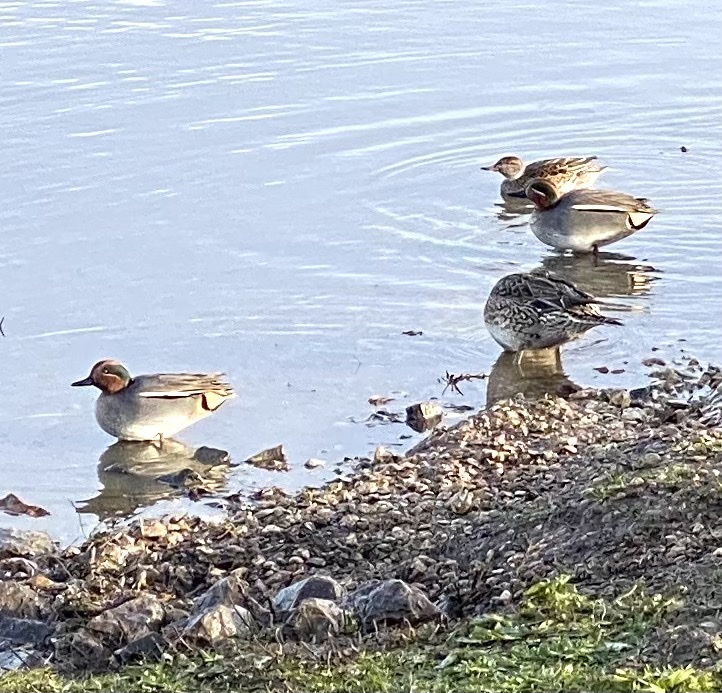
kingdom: Animalia
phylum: Chordata
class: Aves
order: Anseriformes
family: Anatidae
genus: Anas
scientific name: Anas crecca
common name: Eurasian teal
